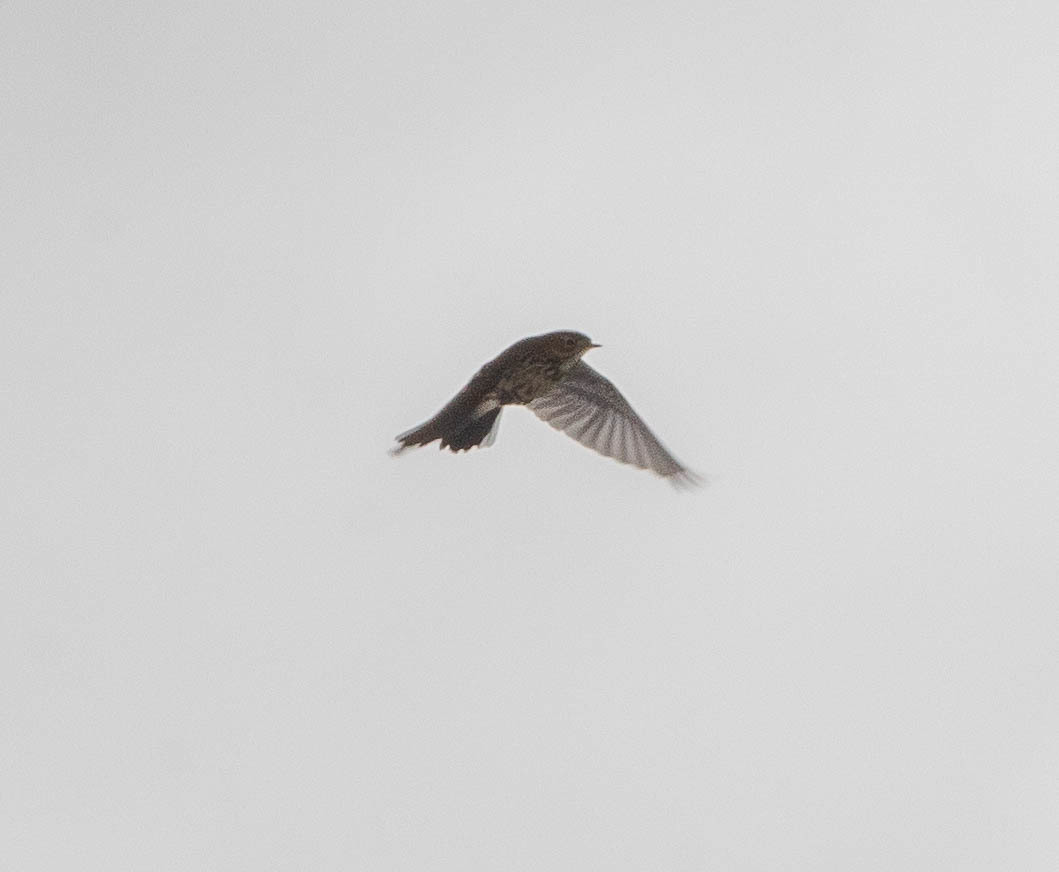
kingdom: Animalia
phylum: Chordata
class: Aves
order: Passeriformes
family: Motacillidae
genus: Anthus
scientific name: Anthus rubescens
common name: Buff-bellied pipit
